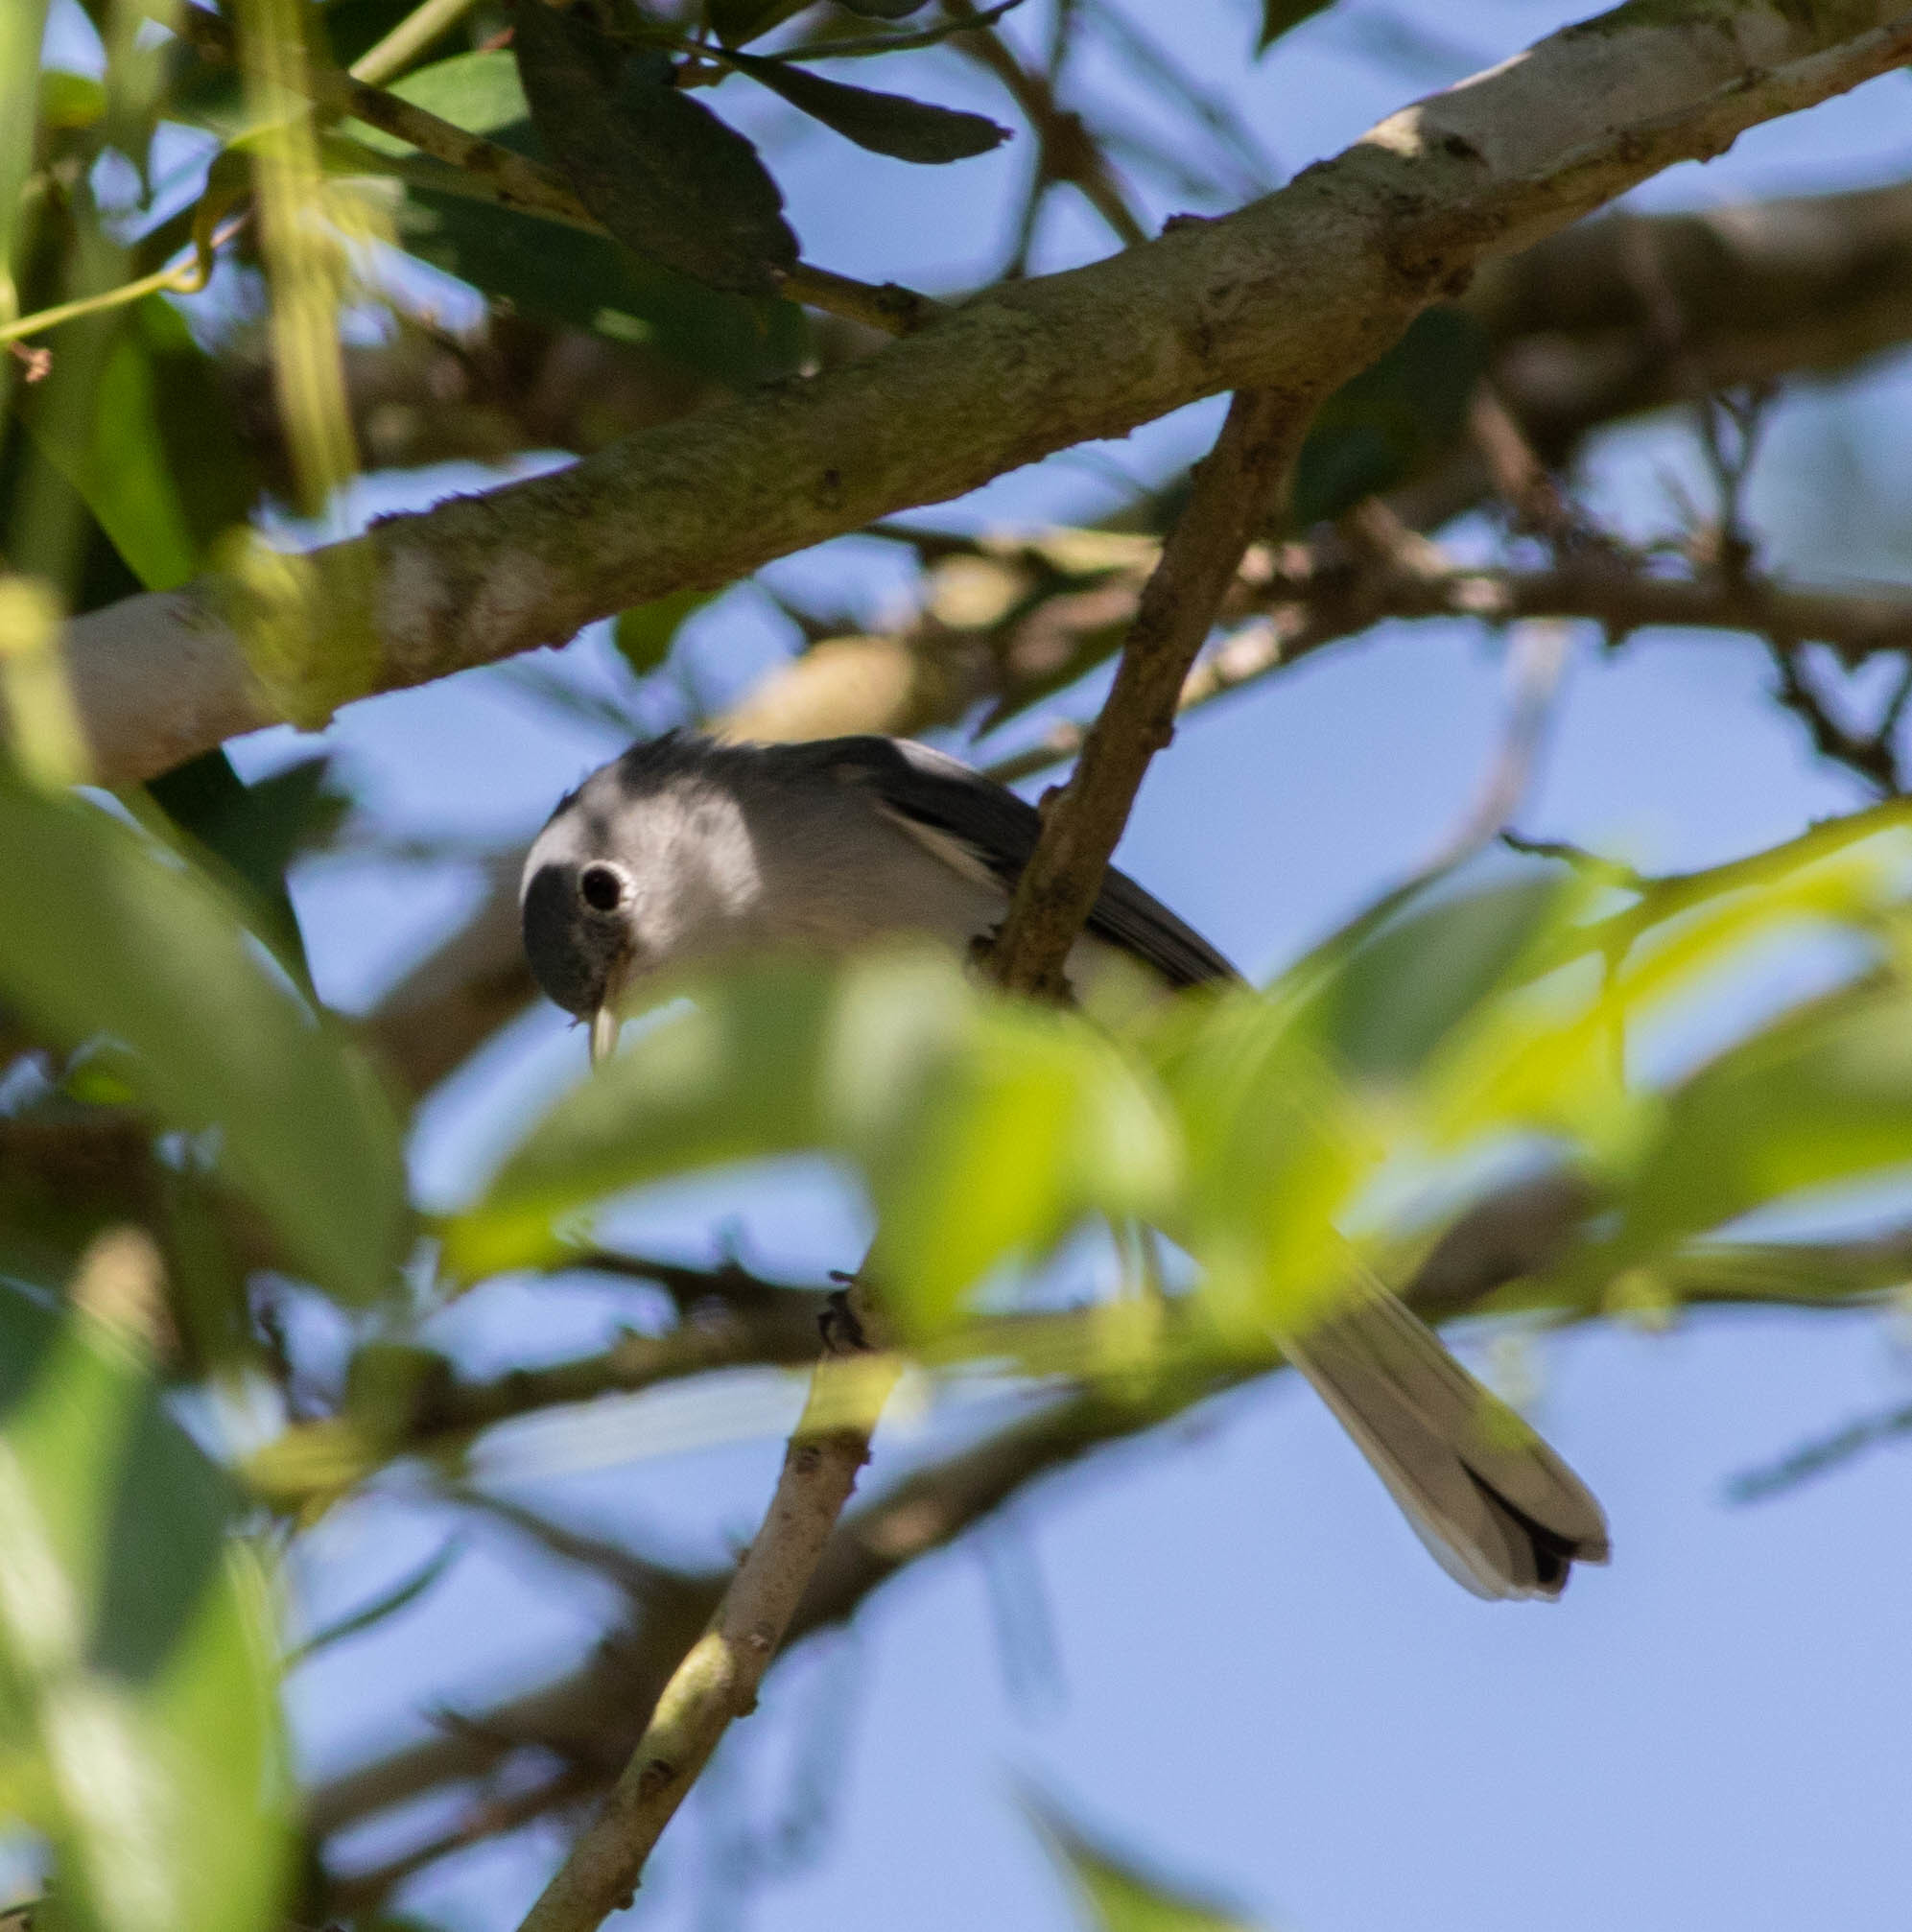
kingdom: Animalia
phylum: Chordata
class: Aves
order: Passeriformes
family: Polioptilidae
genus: Polioptila
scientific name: Polioptila caerulea
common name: Blue-gray gnatcatcher
